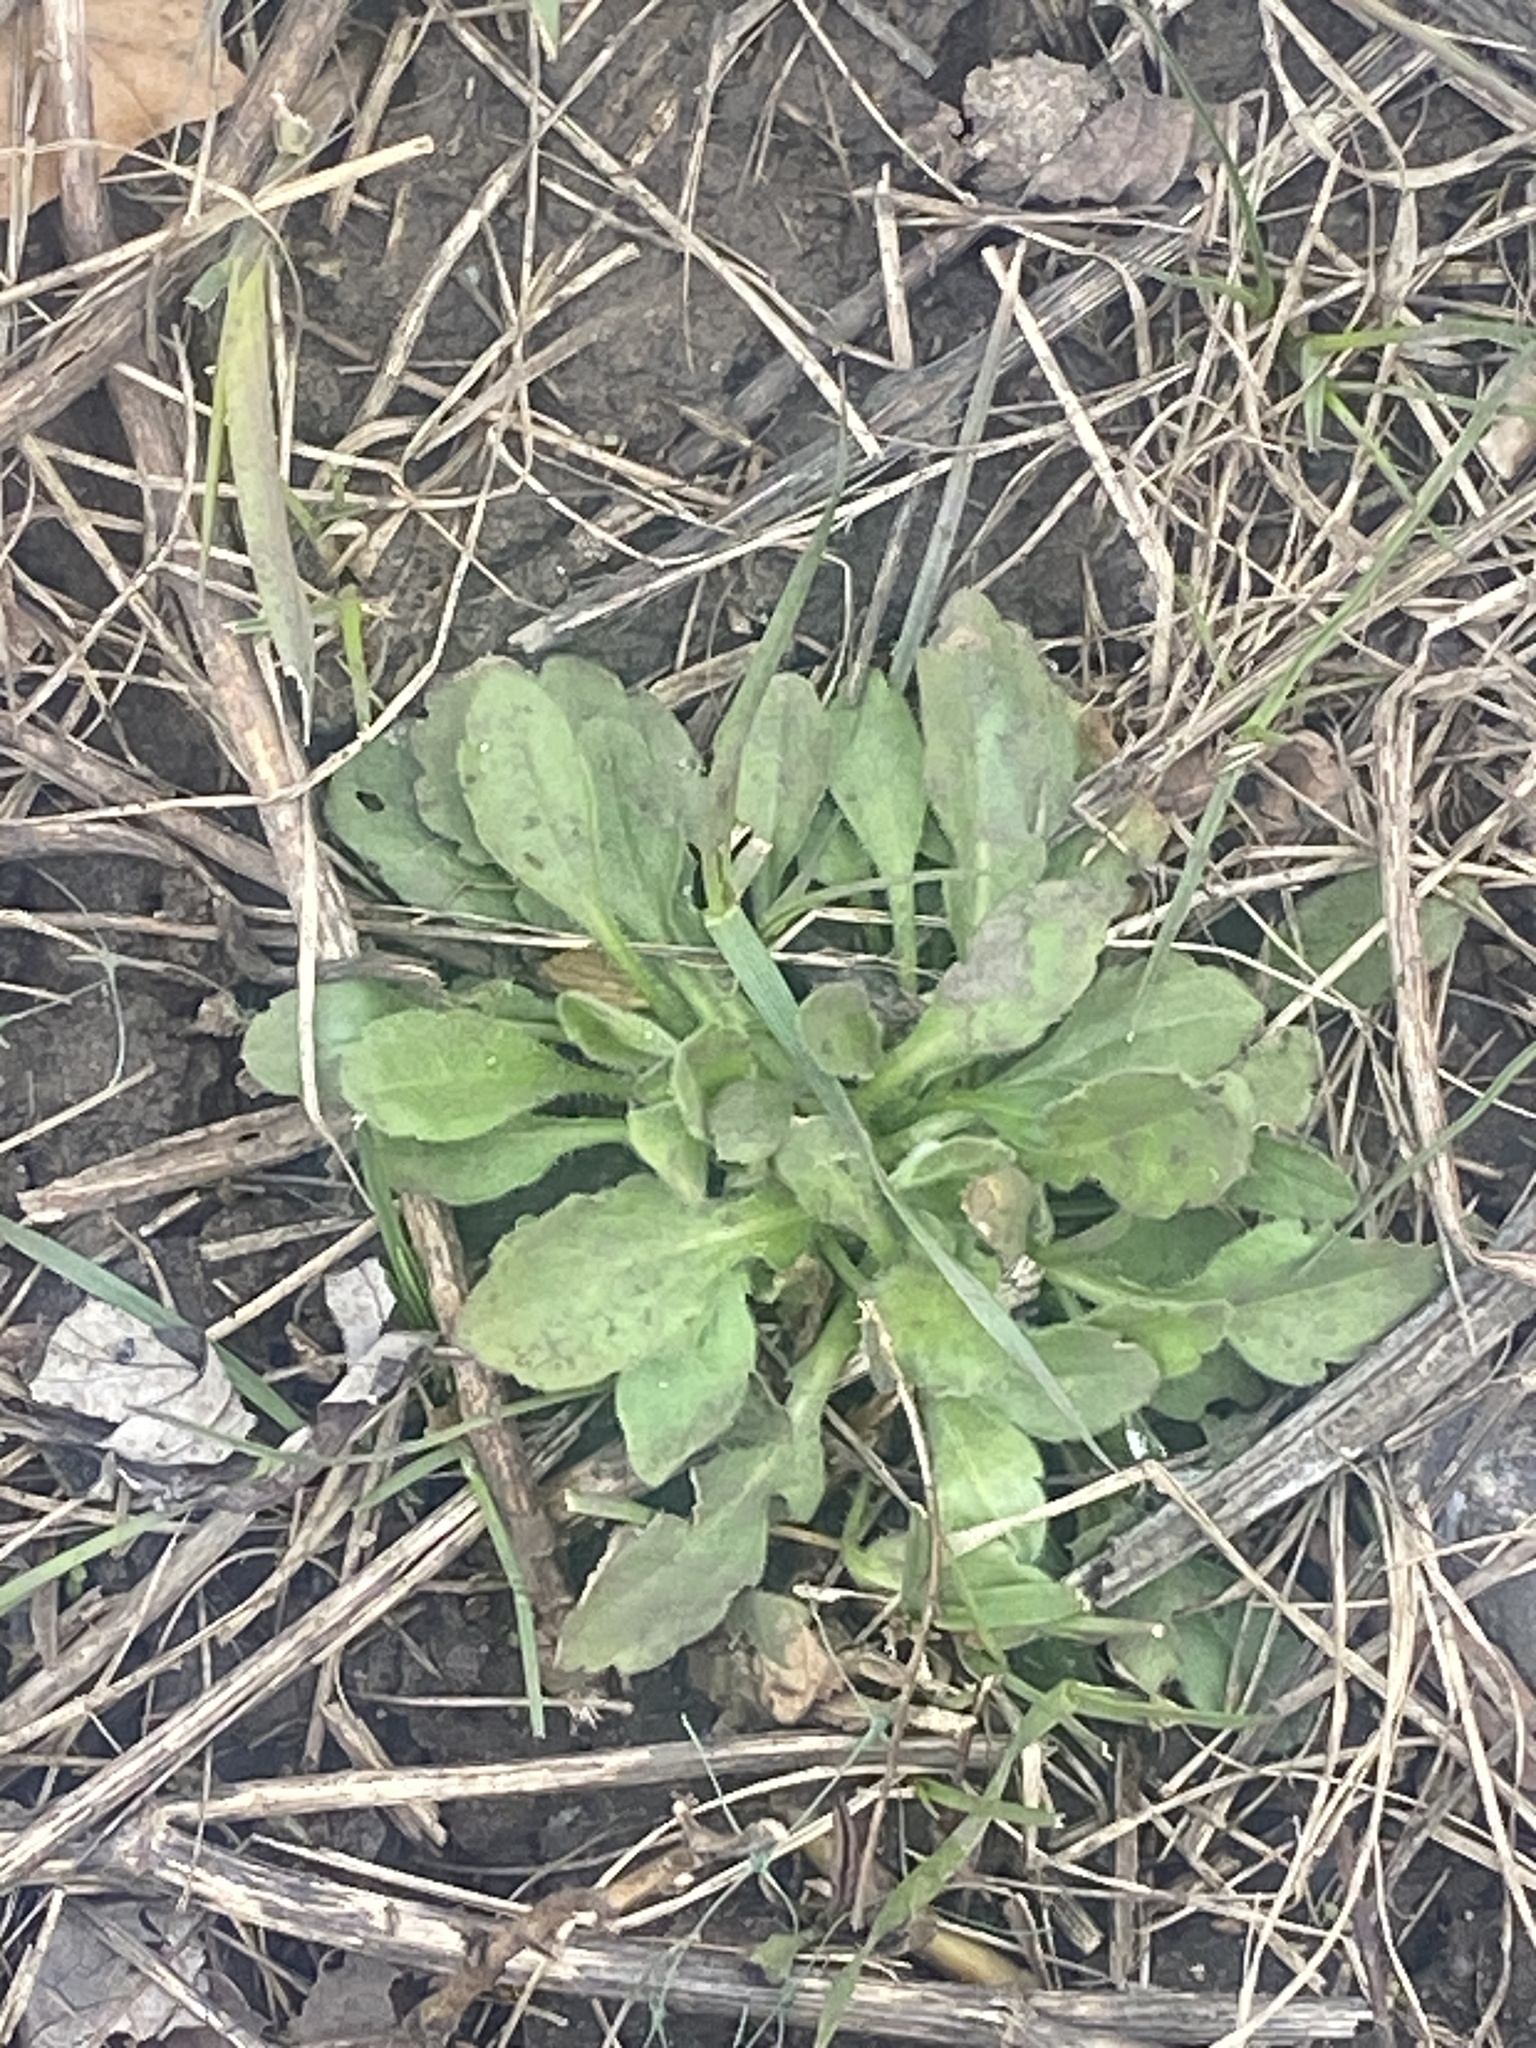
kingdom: Plantae
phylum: Tracheophyta
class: Magnoliopsida
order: Asterales
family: Asteraceae
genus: Erigeron
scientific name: Erigeron canadensis
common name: Canadian fleabane
